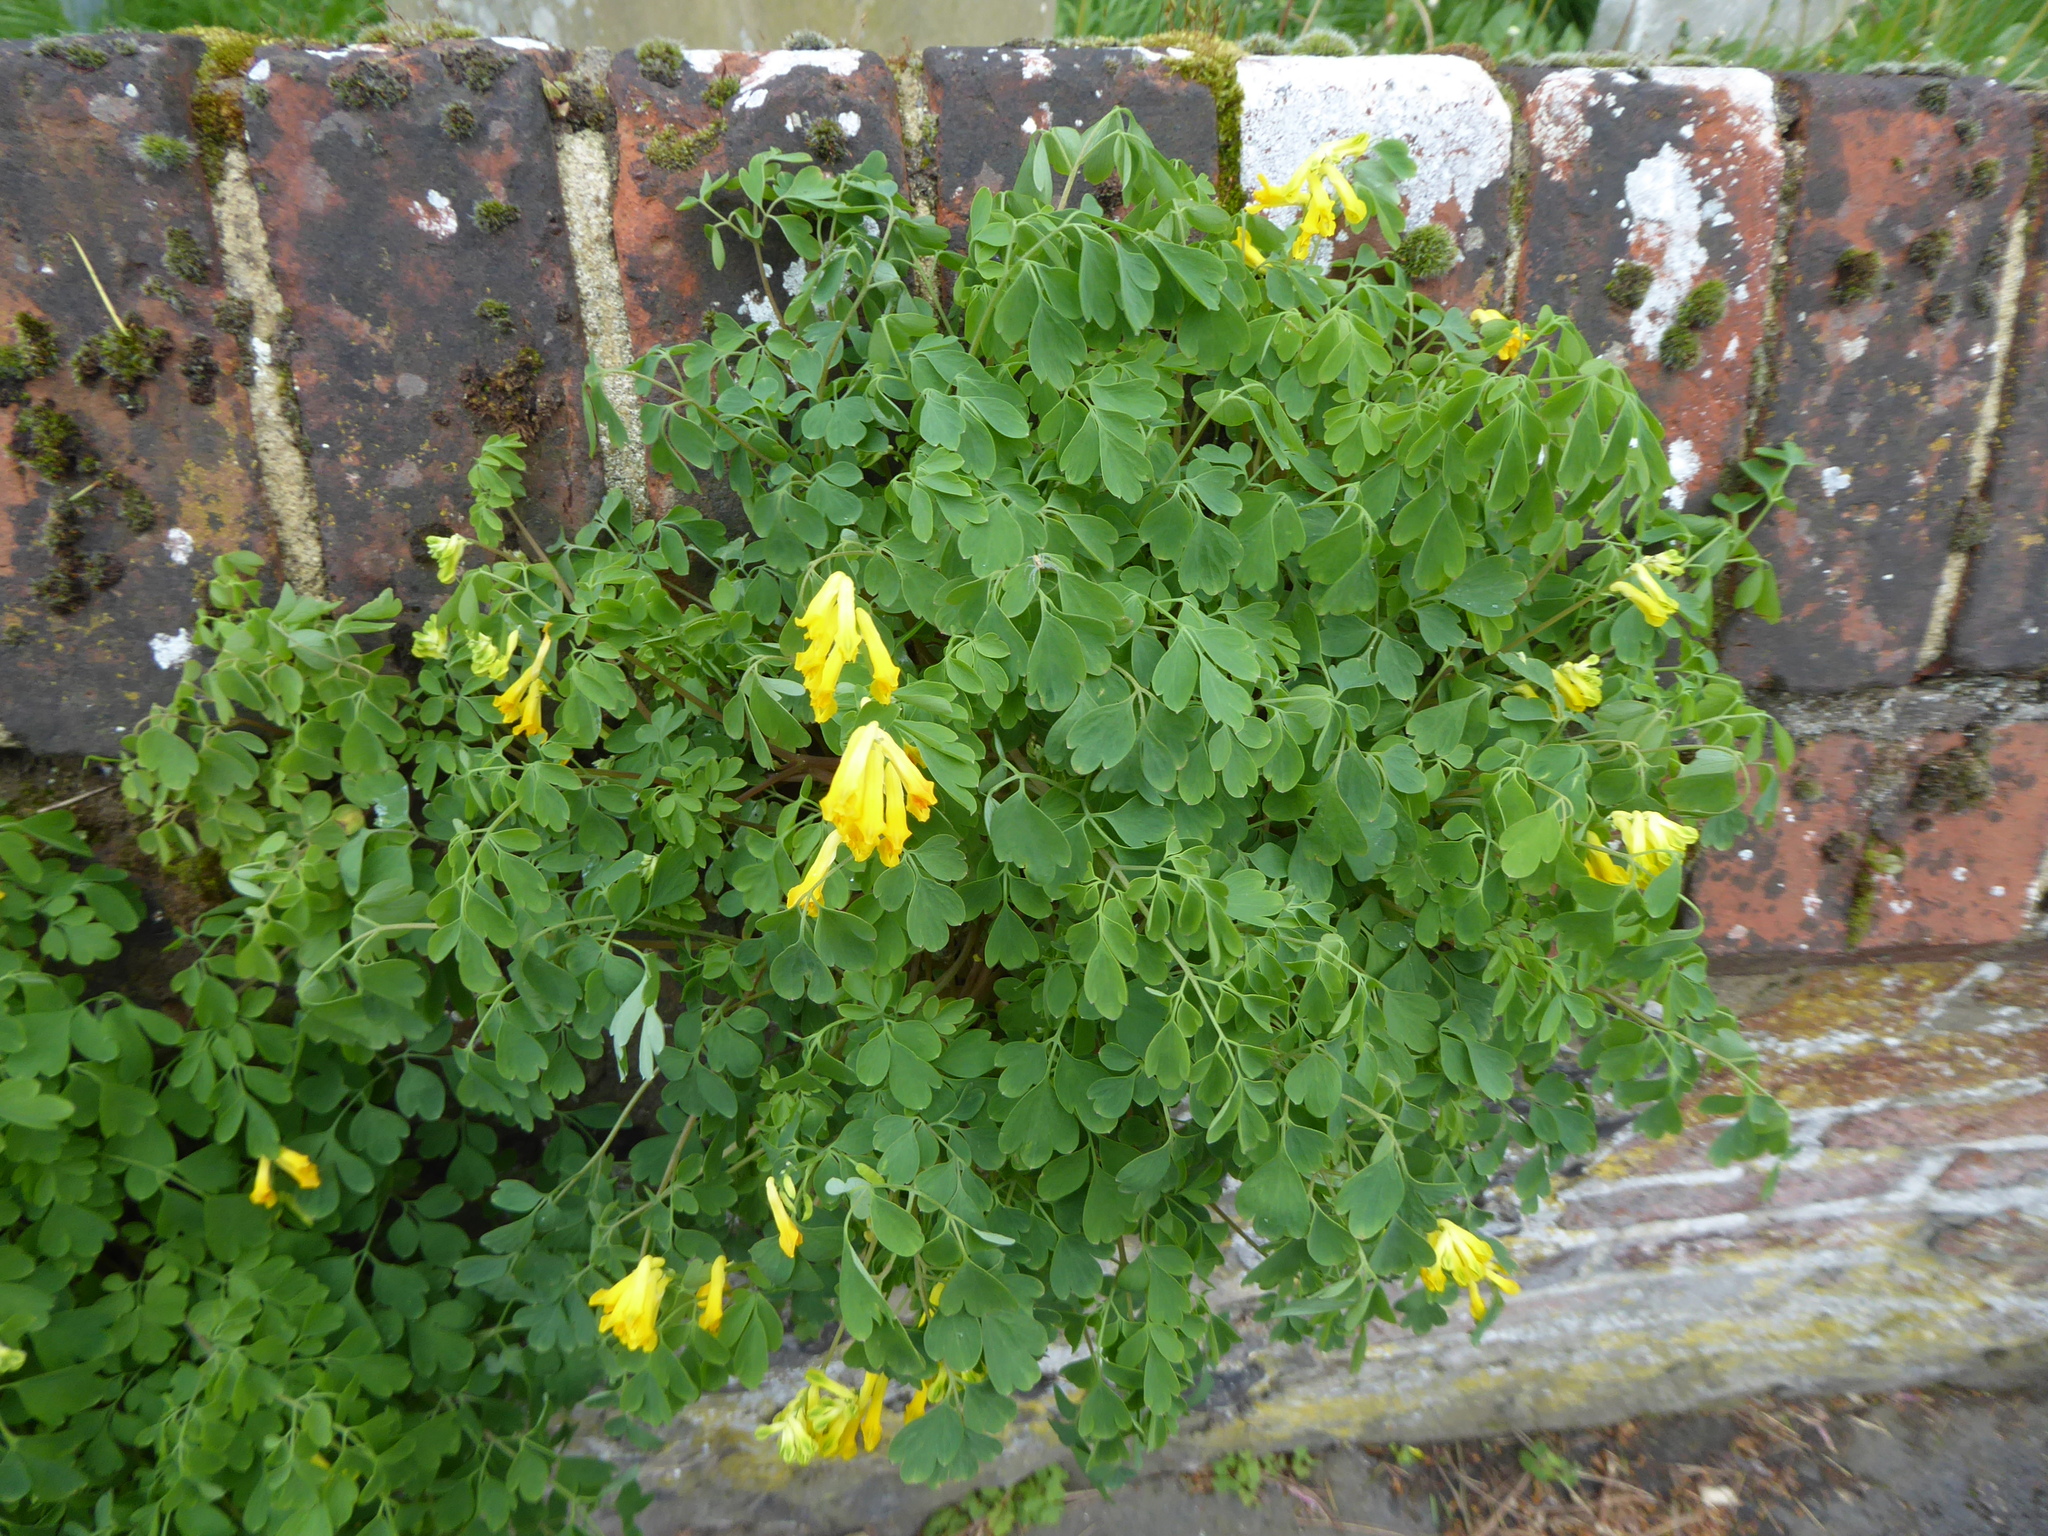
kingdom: Plantae
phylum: Tracheophyta
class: Magnoliopsida
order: Ranunculales
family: Papaveraceae
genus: Pseudofumaria
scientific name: Pseudofumaria lutea
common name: Yellow corydalis
